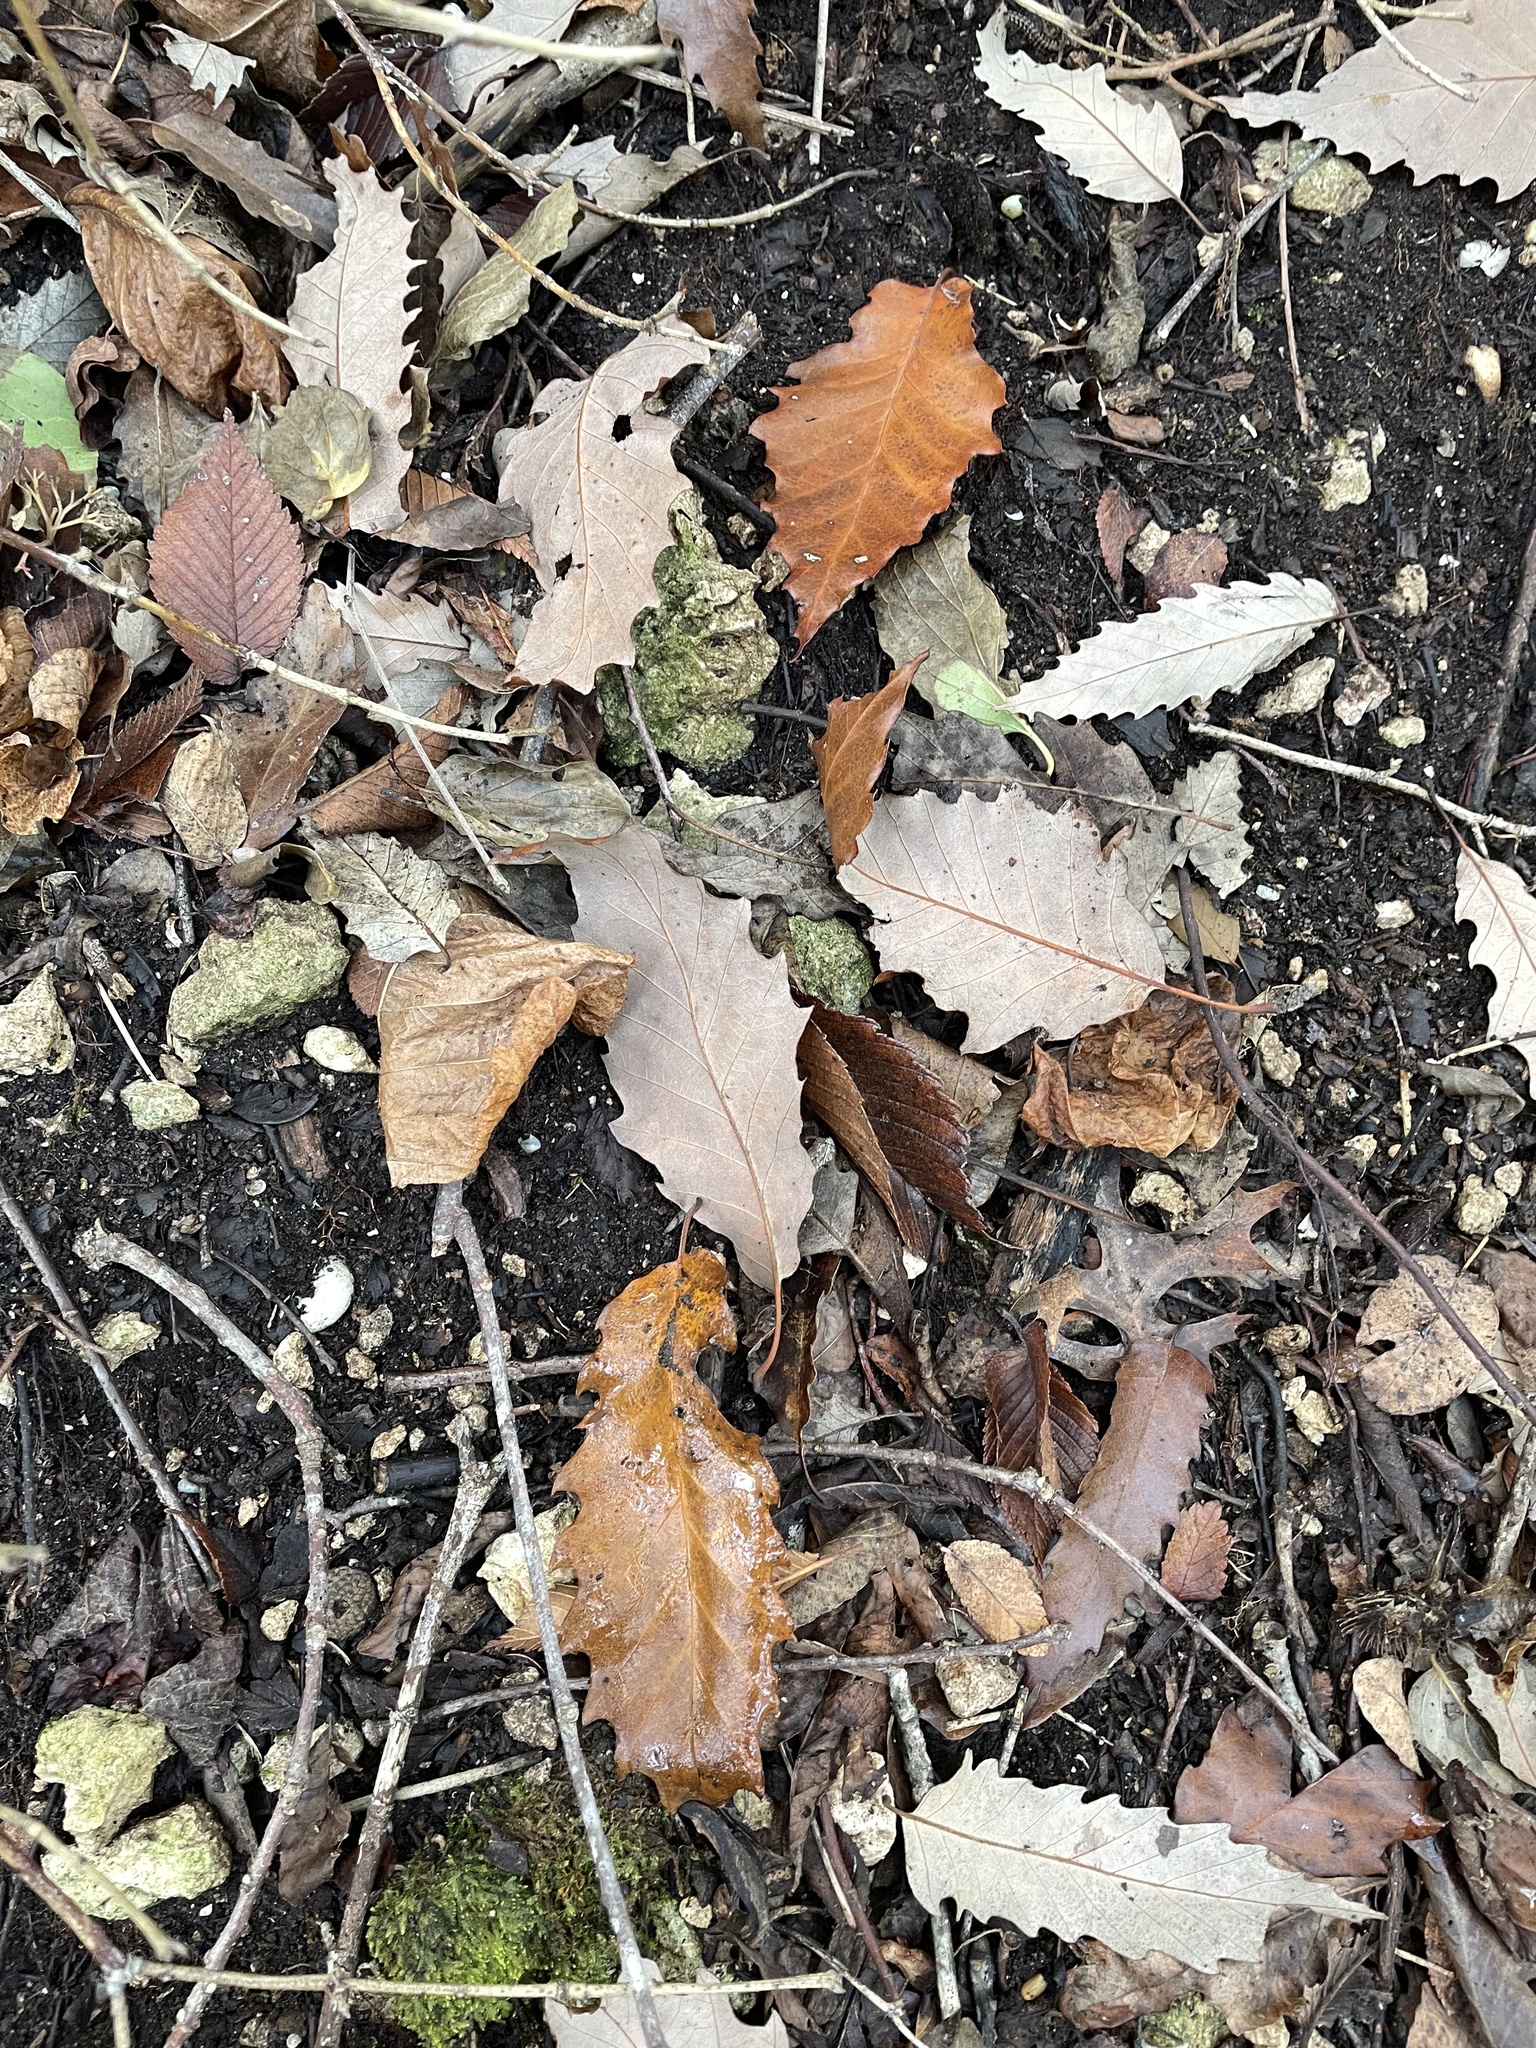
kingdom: Plantae
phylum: Tracheophyta
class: Magnoliopsida
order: Fagales
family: Fagaceae
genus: Quercus
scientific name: Quercus muehlenbergii
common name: Chinkapin oak
